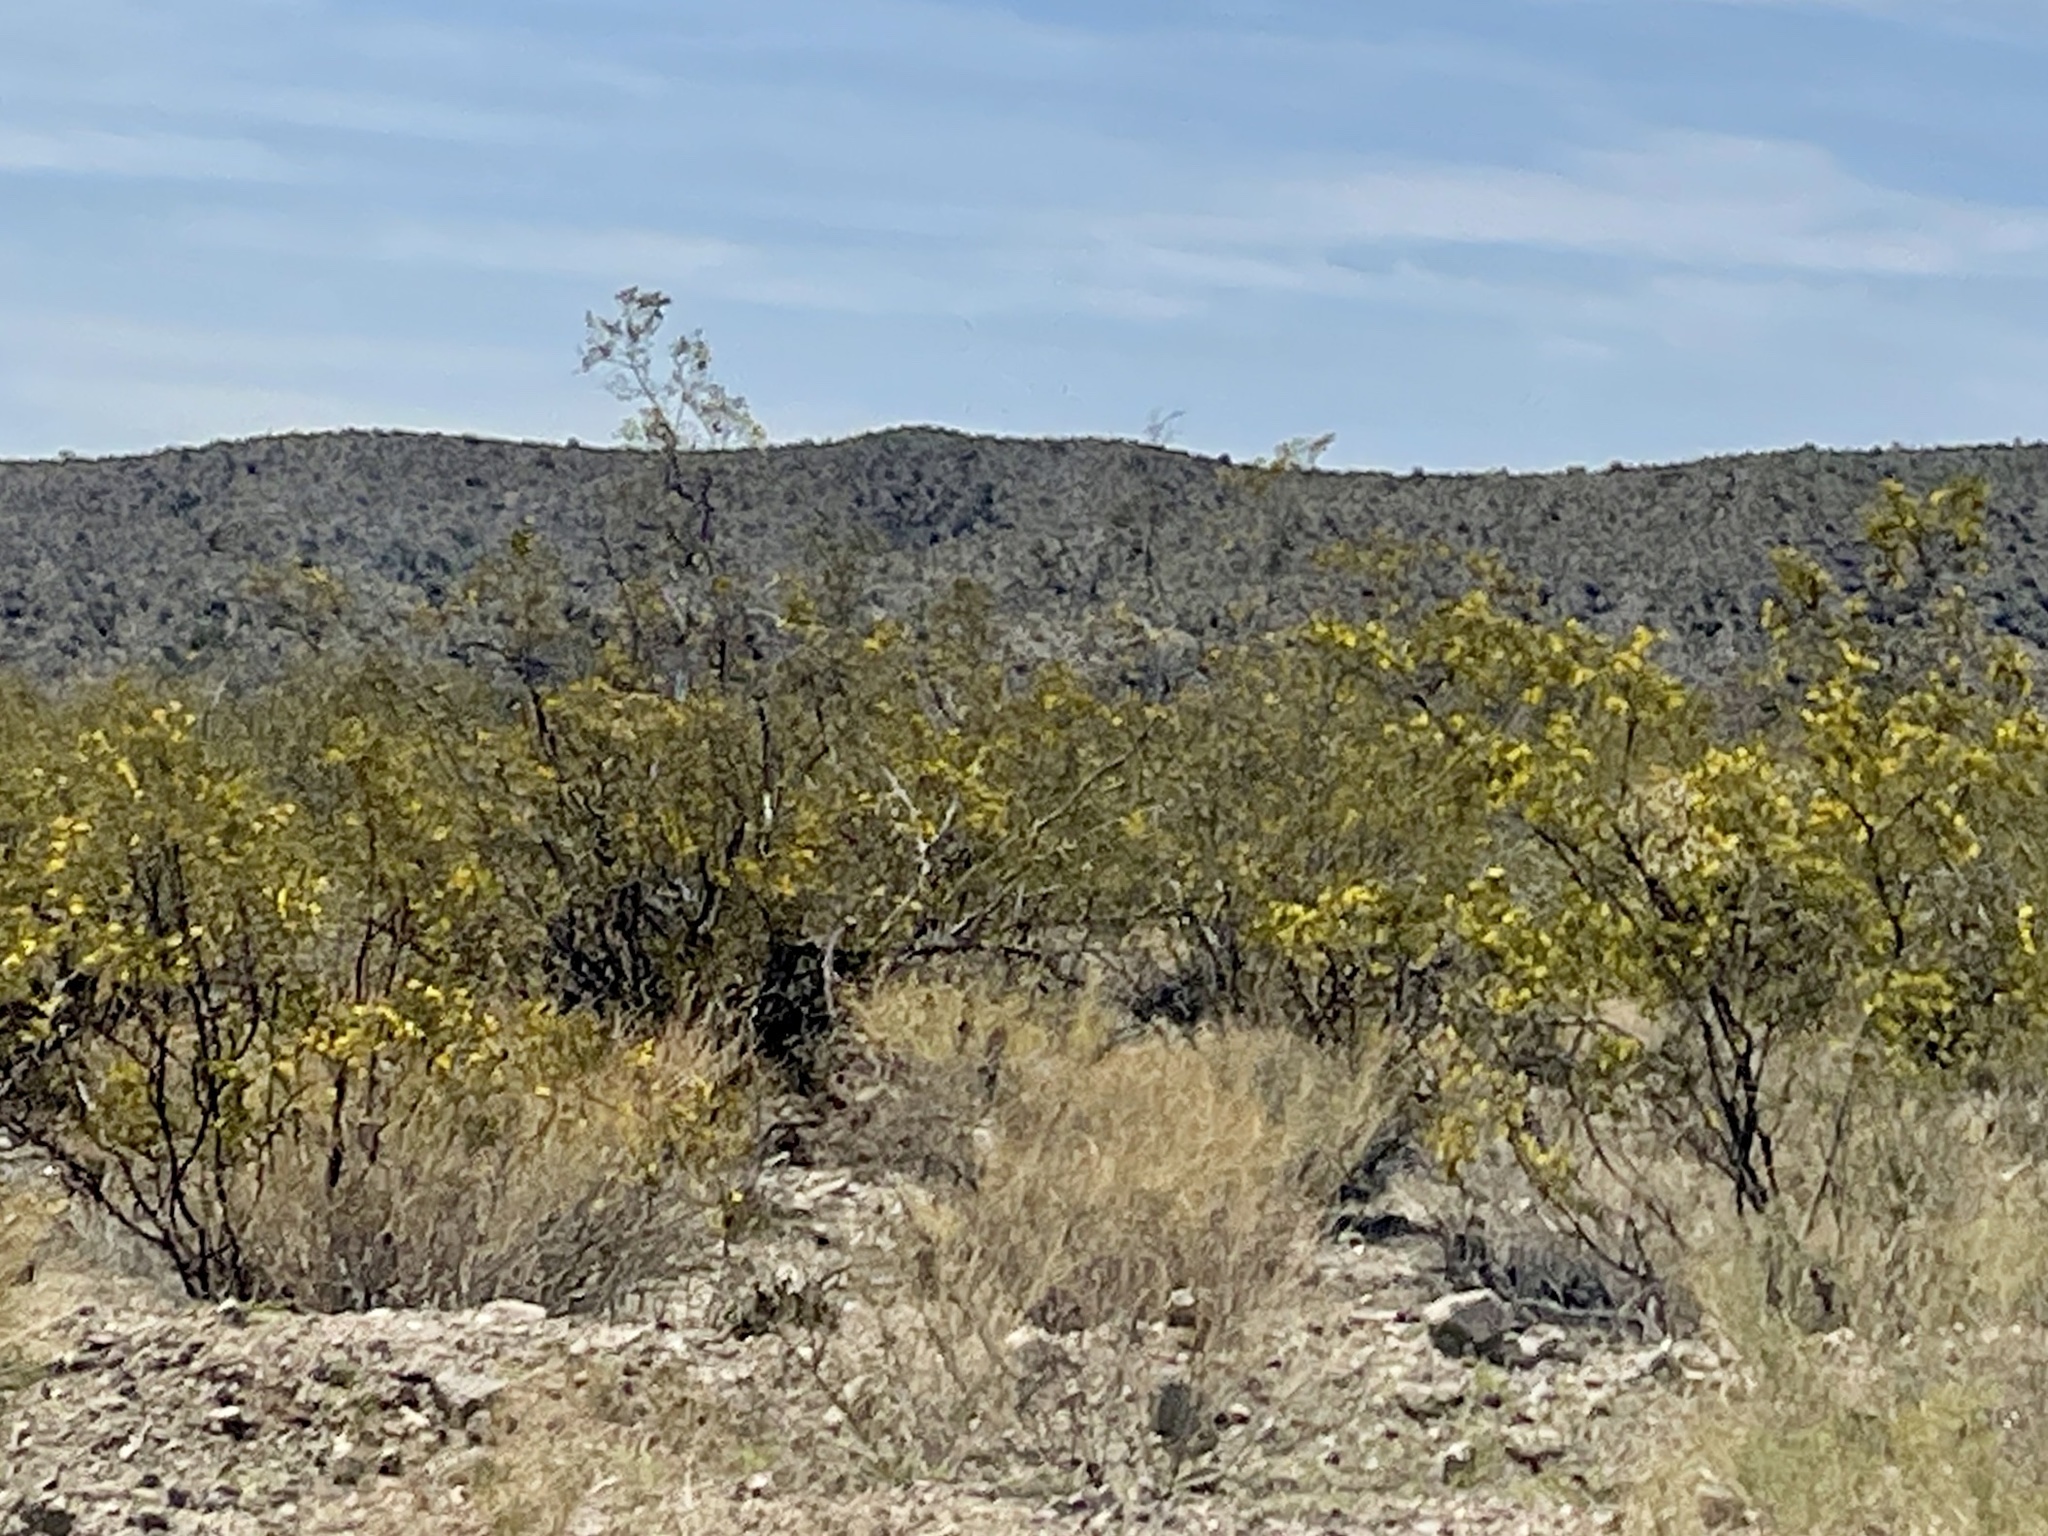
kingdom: Plantae
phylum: Tracheophyta
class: Magnoliopsida
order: Zygophyllales
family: Zygophyllaceae
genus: Larrea
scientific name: Larrea tridentata
